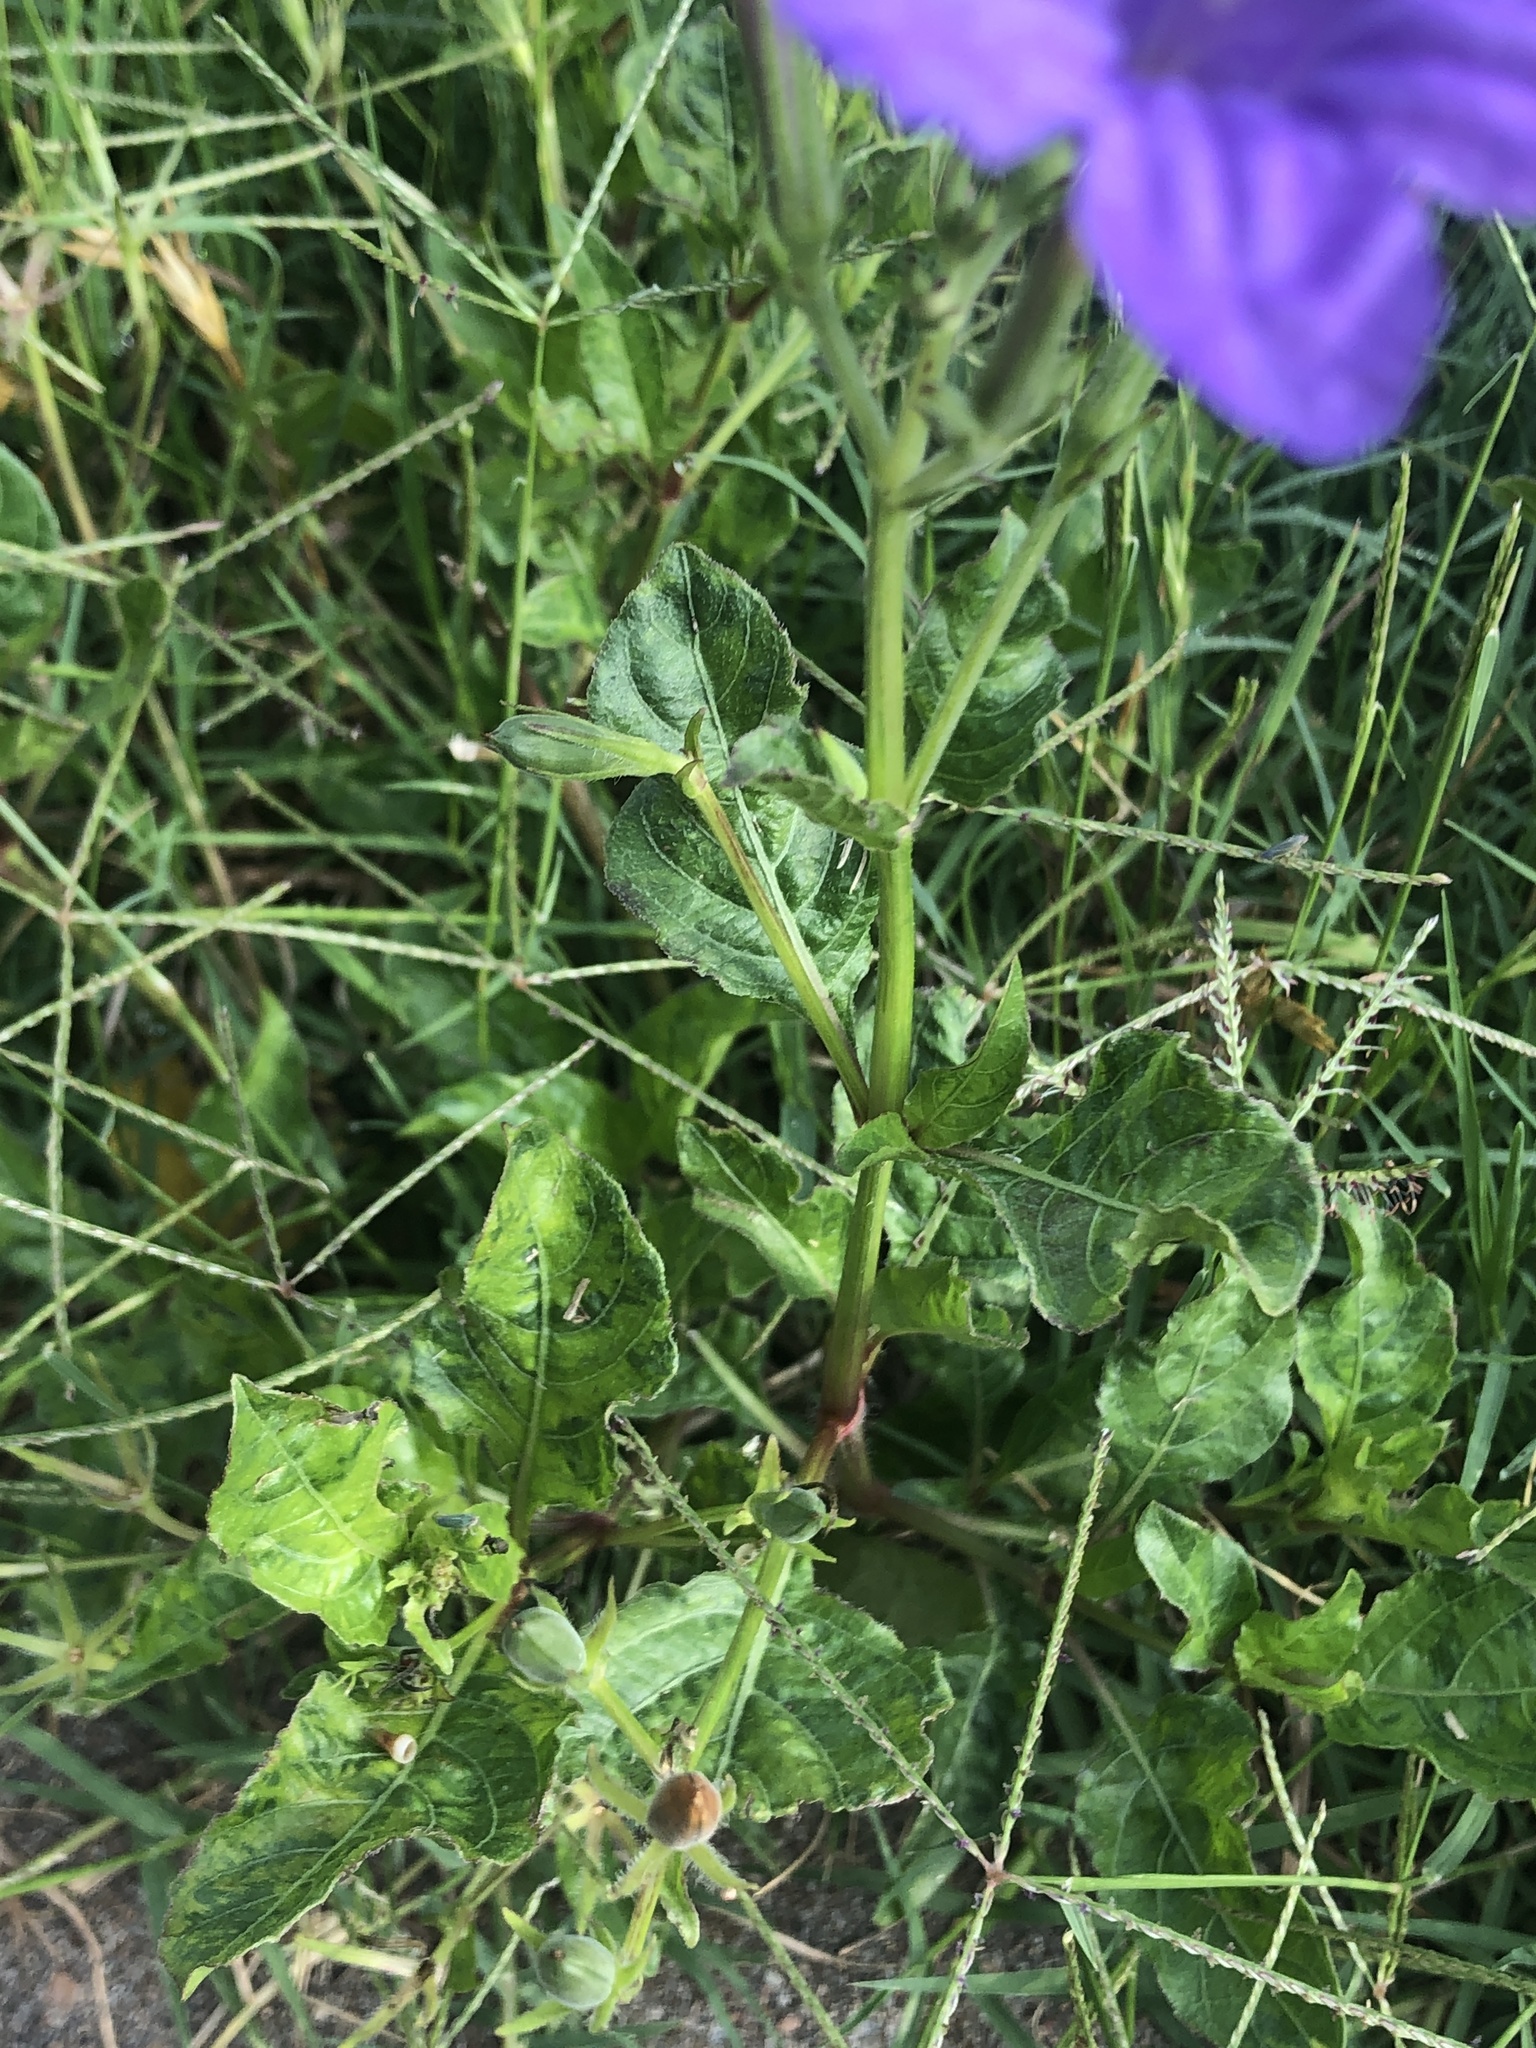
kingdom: Plantae
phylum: Tracheophyta
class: Magnoliopsida
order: Lamiales
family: Acanthaceae
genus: Ruellia
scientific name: Ruellia ciliatiflora
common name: Hairyflower wild petunia
